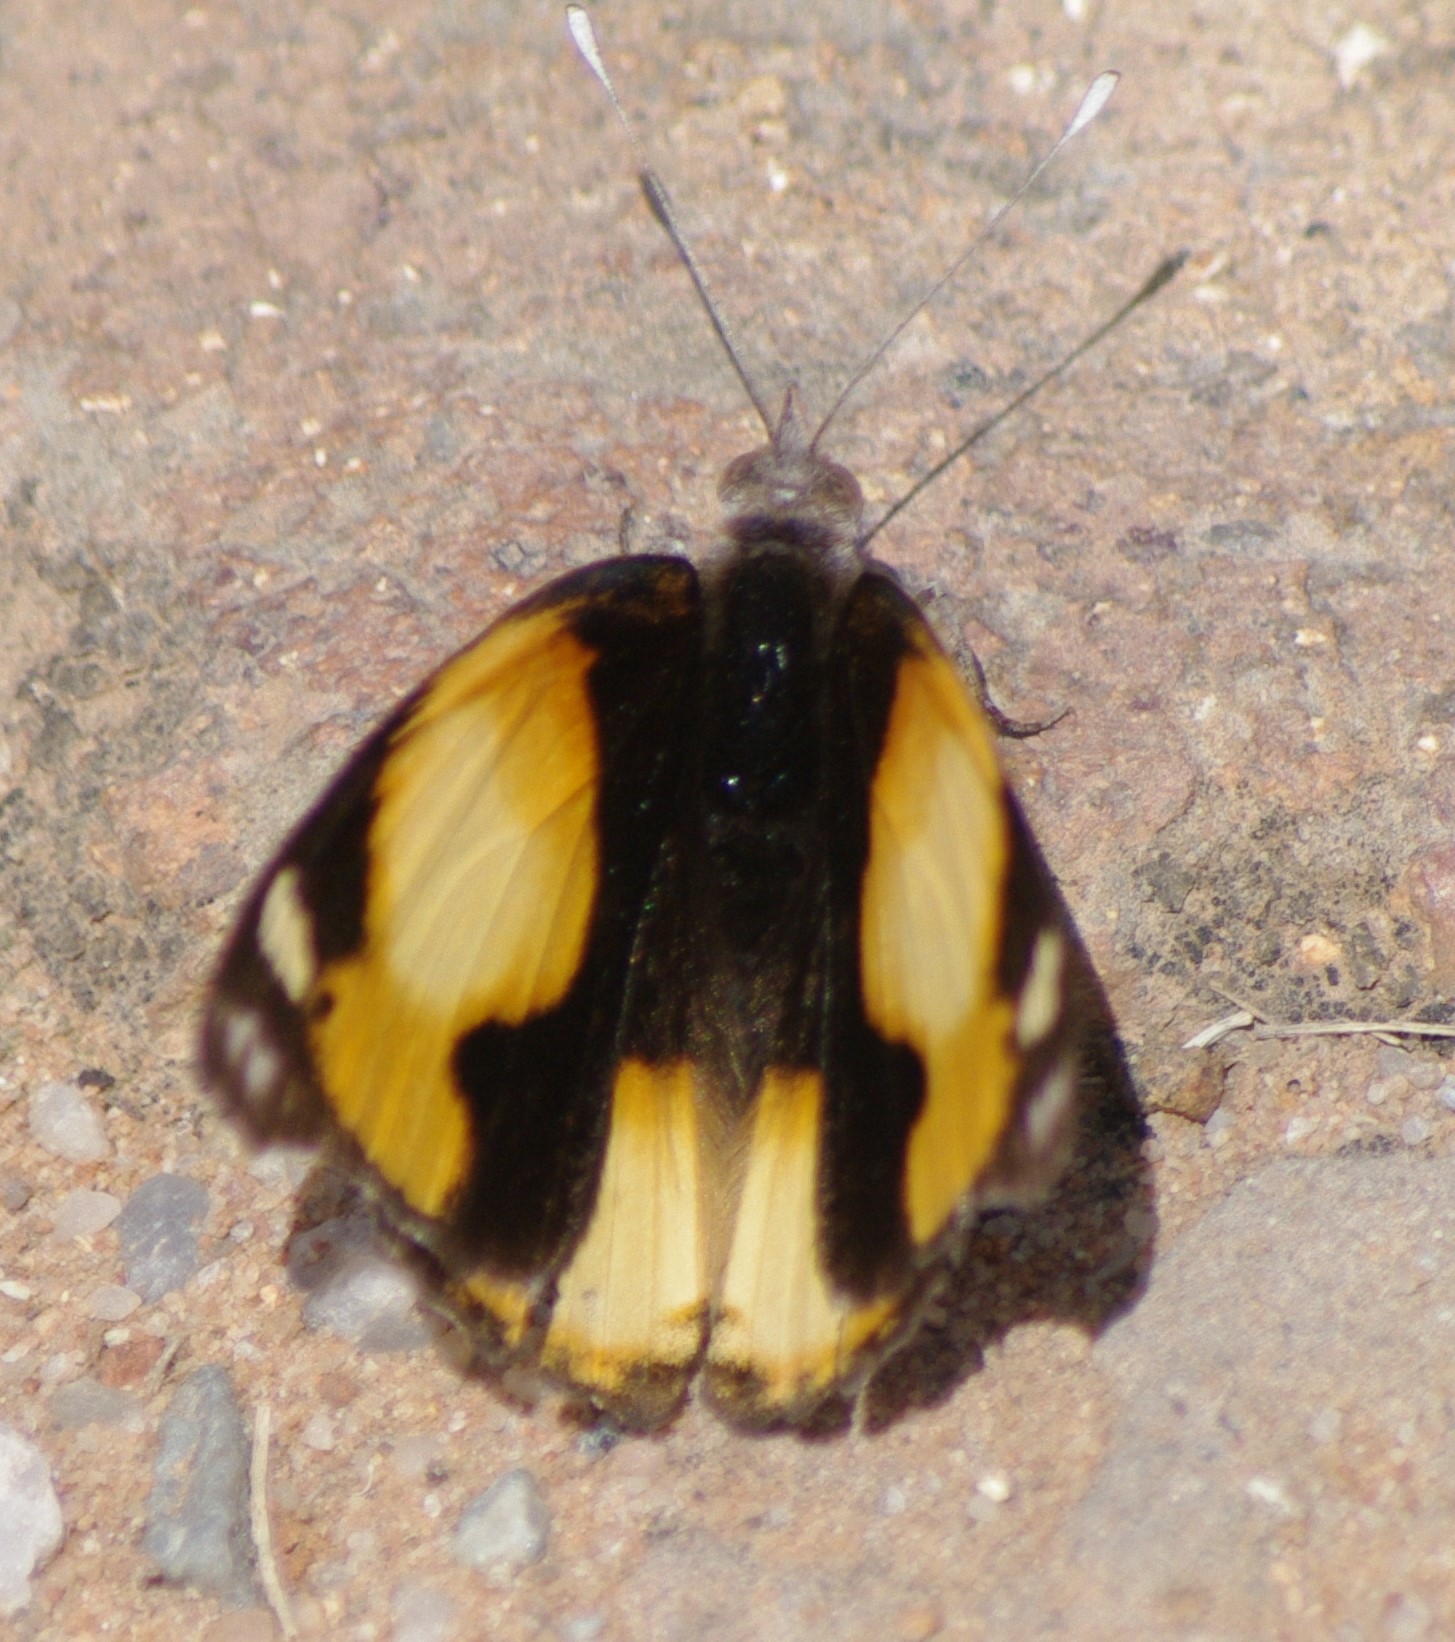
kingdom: Animalia
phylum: Arthropoda
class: Insecta
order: Lepidoptera
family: Nymphalidae
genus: Junonia
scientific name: Junonia hierta
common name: Yellow pansy
